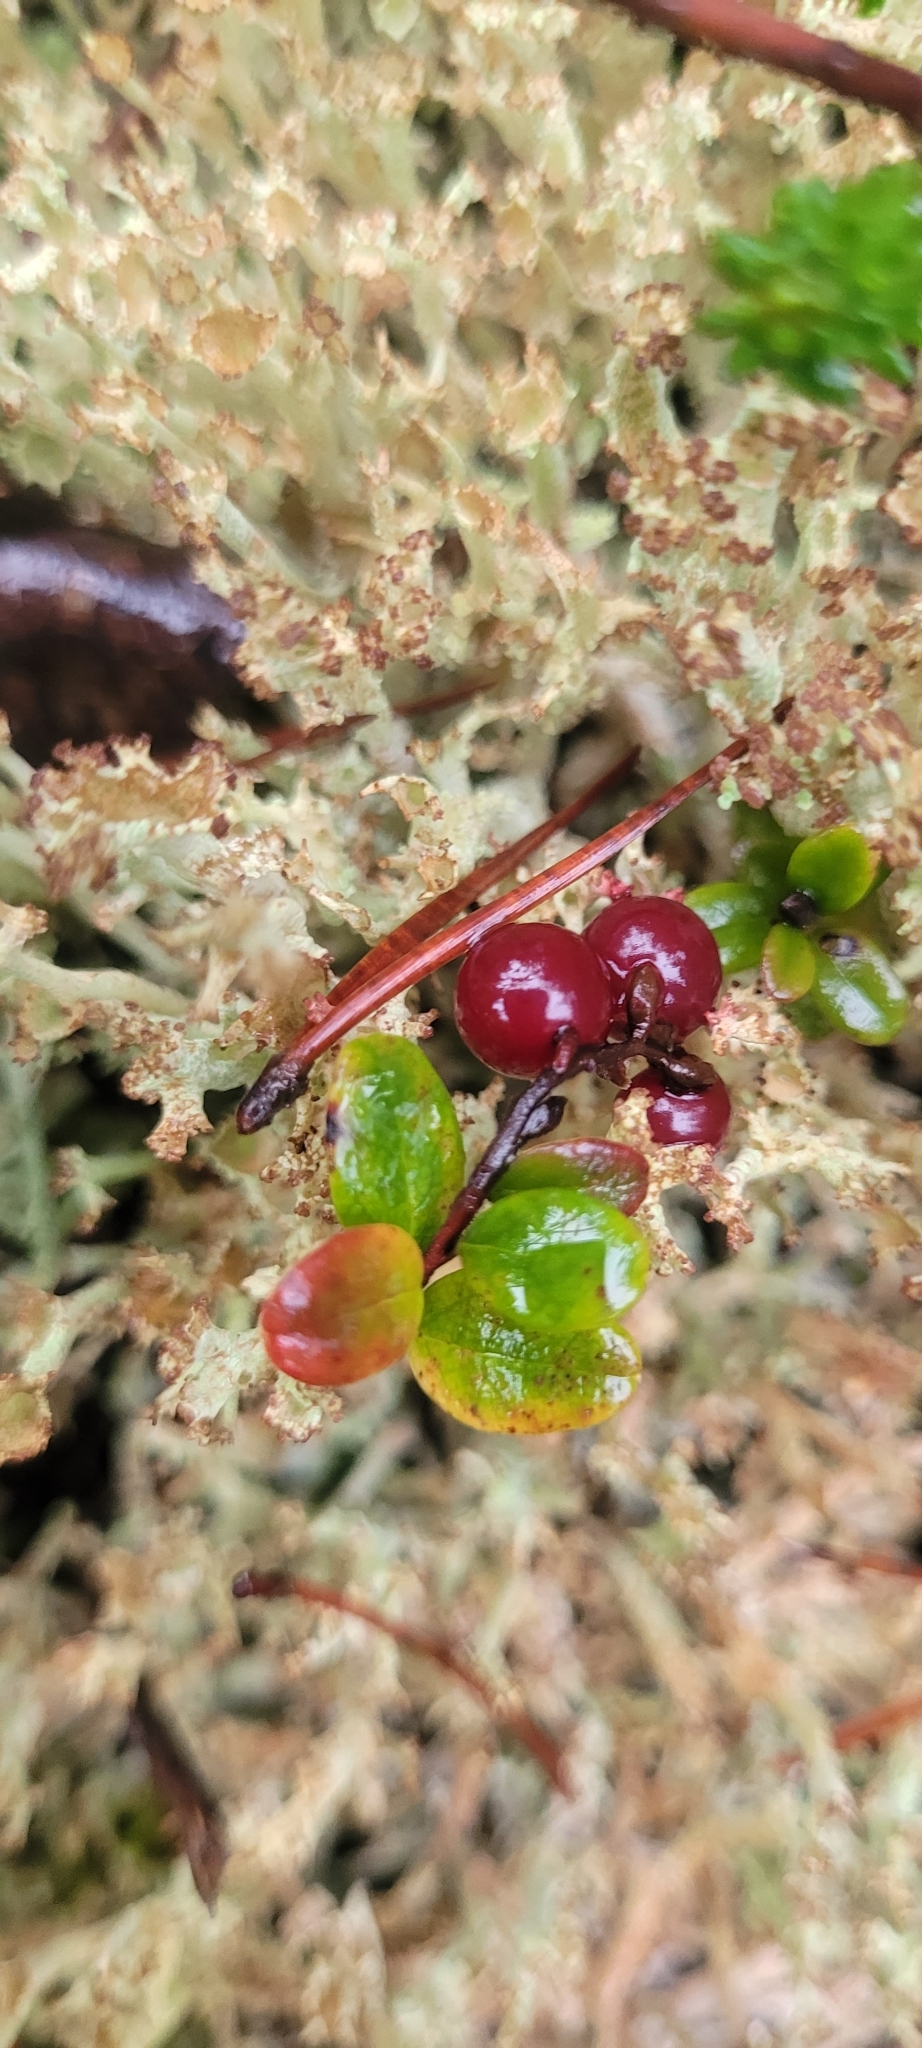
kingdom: Plantae
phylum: Tracheophyta
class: Magnoliopsida
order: Ericales
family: Ericaceae
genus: Vaccinium
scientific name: Vaccinium oxycoccos
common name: Cranberry
